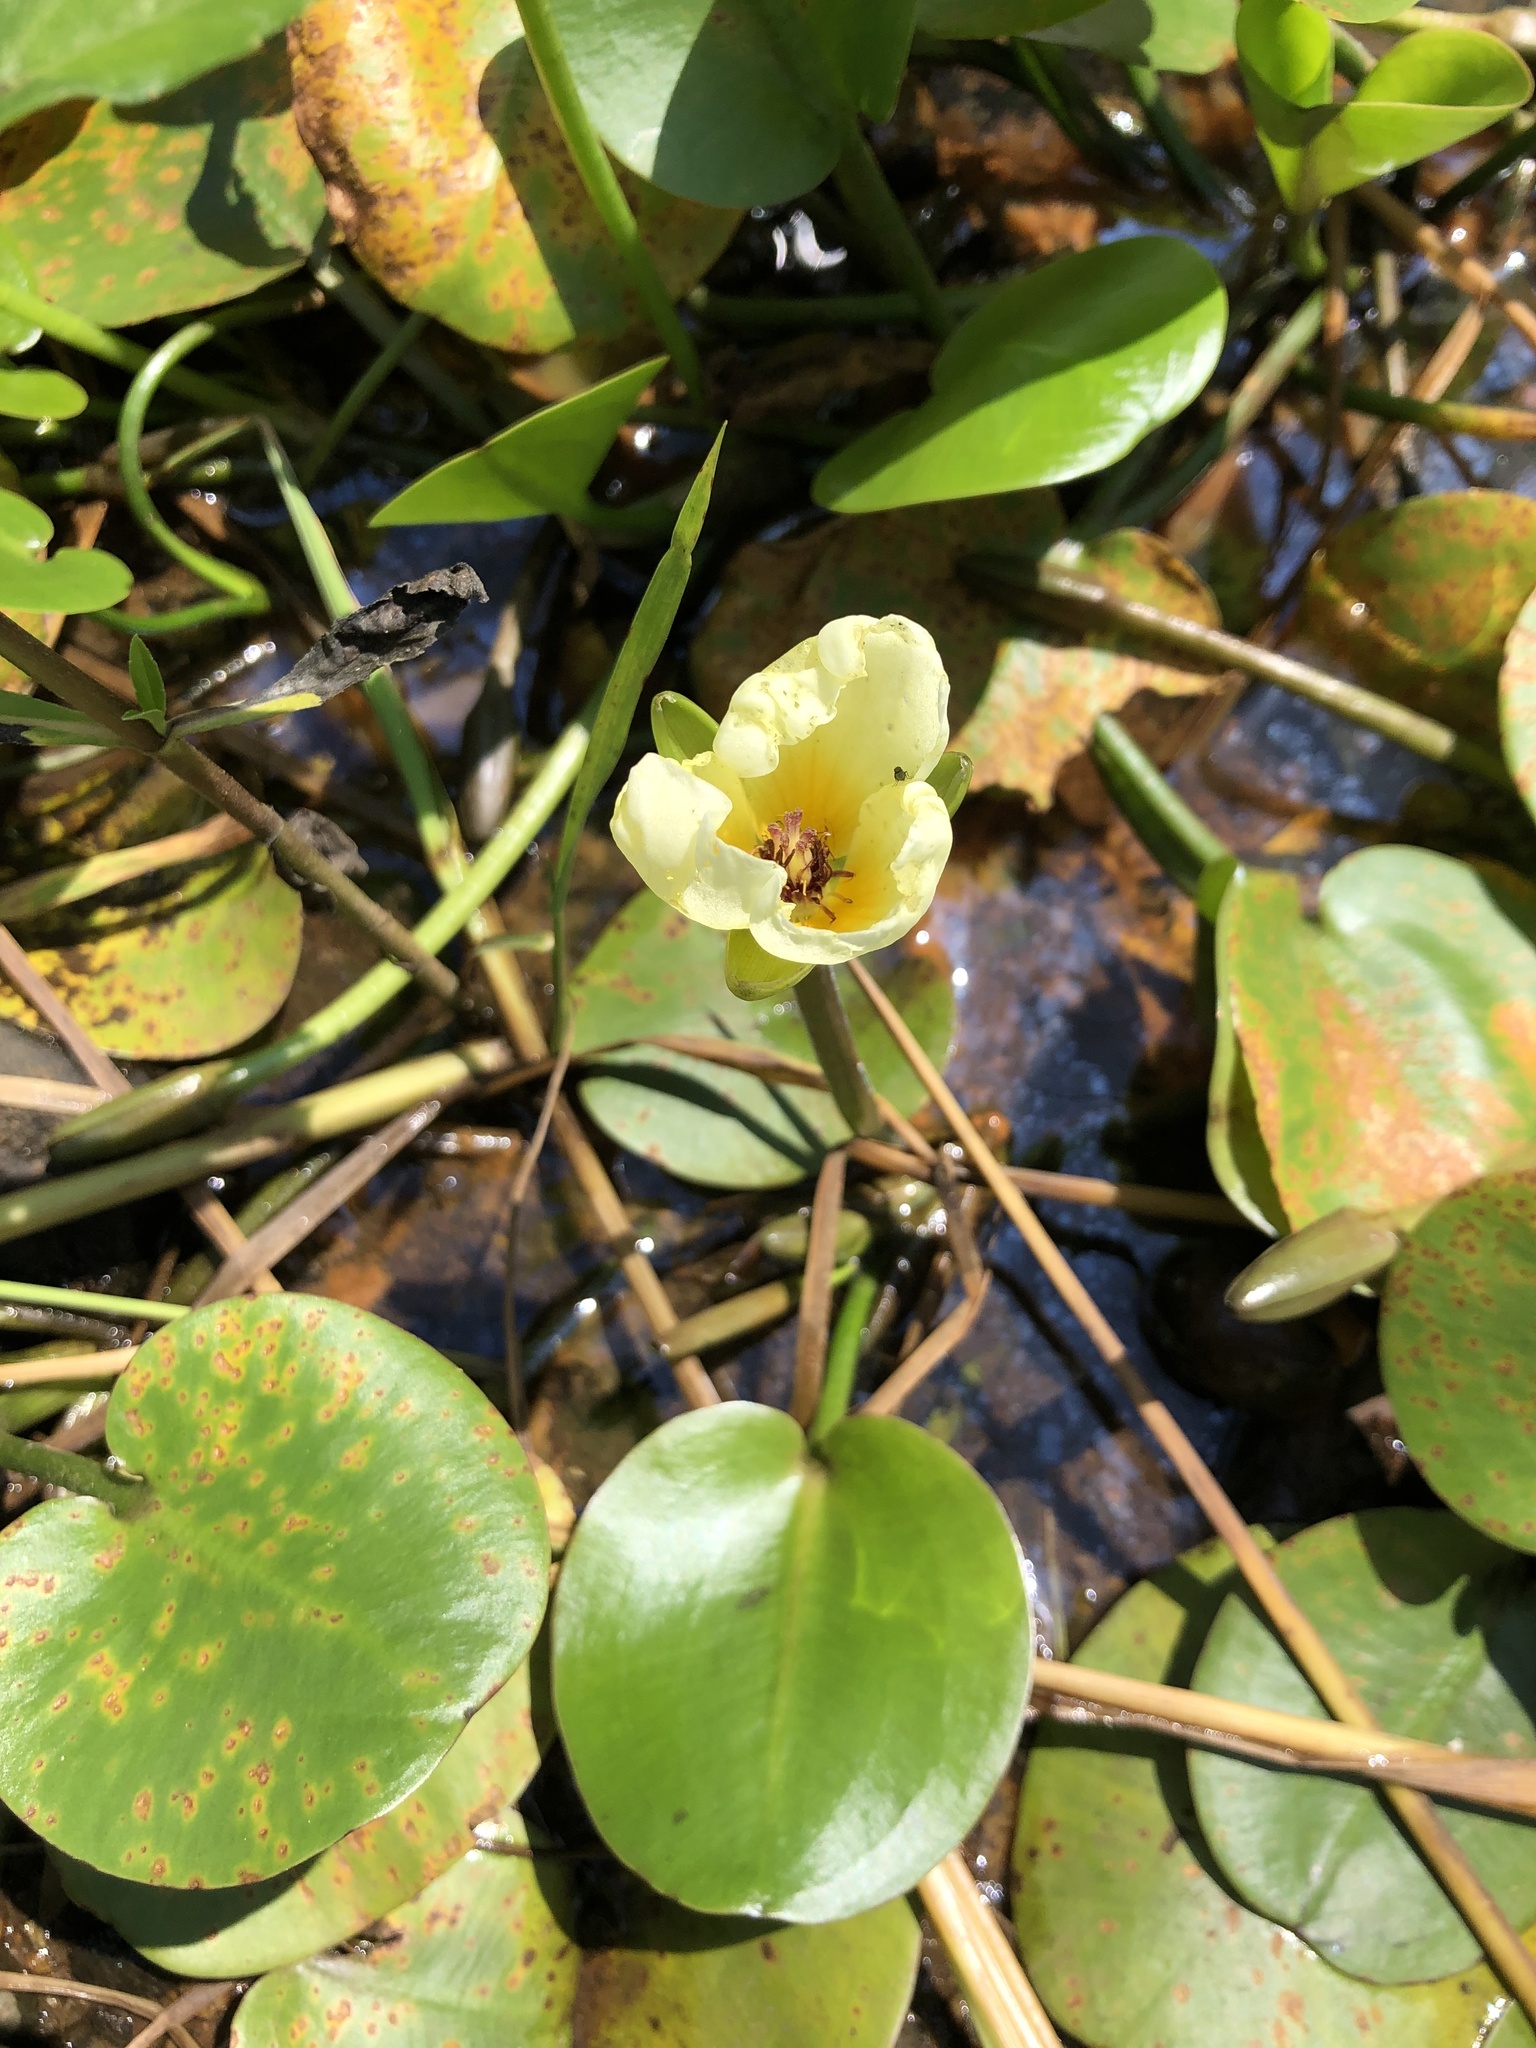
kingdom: Plantae
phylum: Tracheophyta
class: Liliopsida
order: Alismatales
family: Alismataceae
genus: Limnocharis
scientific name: Limnocharis flava
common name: Sawah-flower-rush
